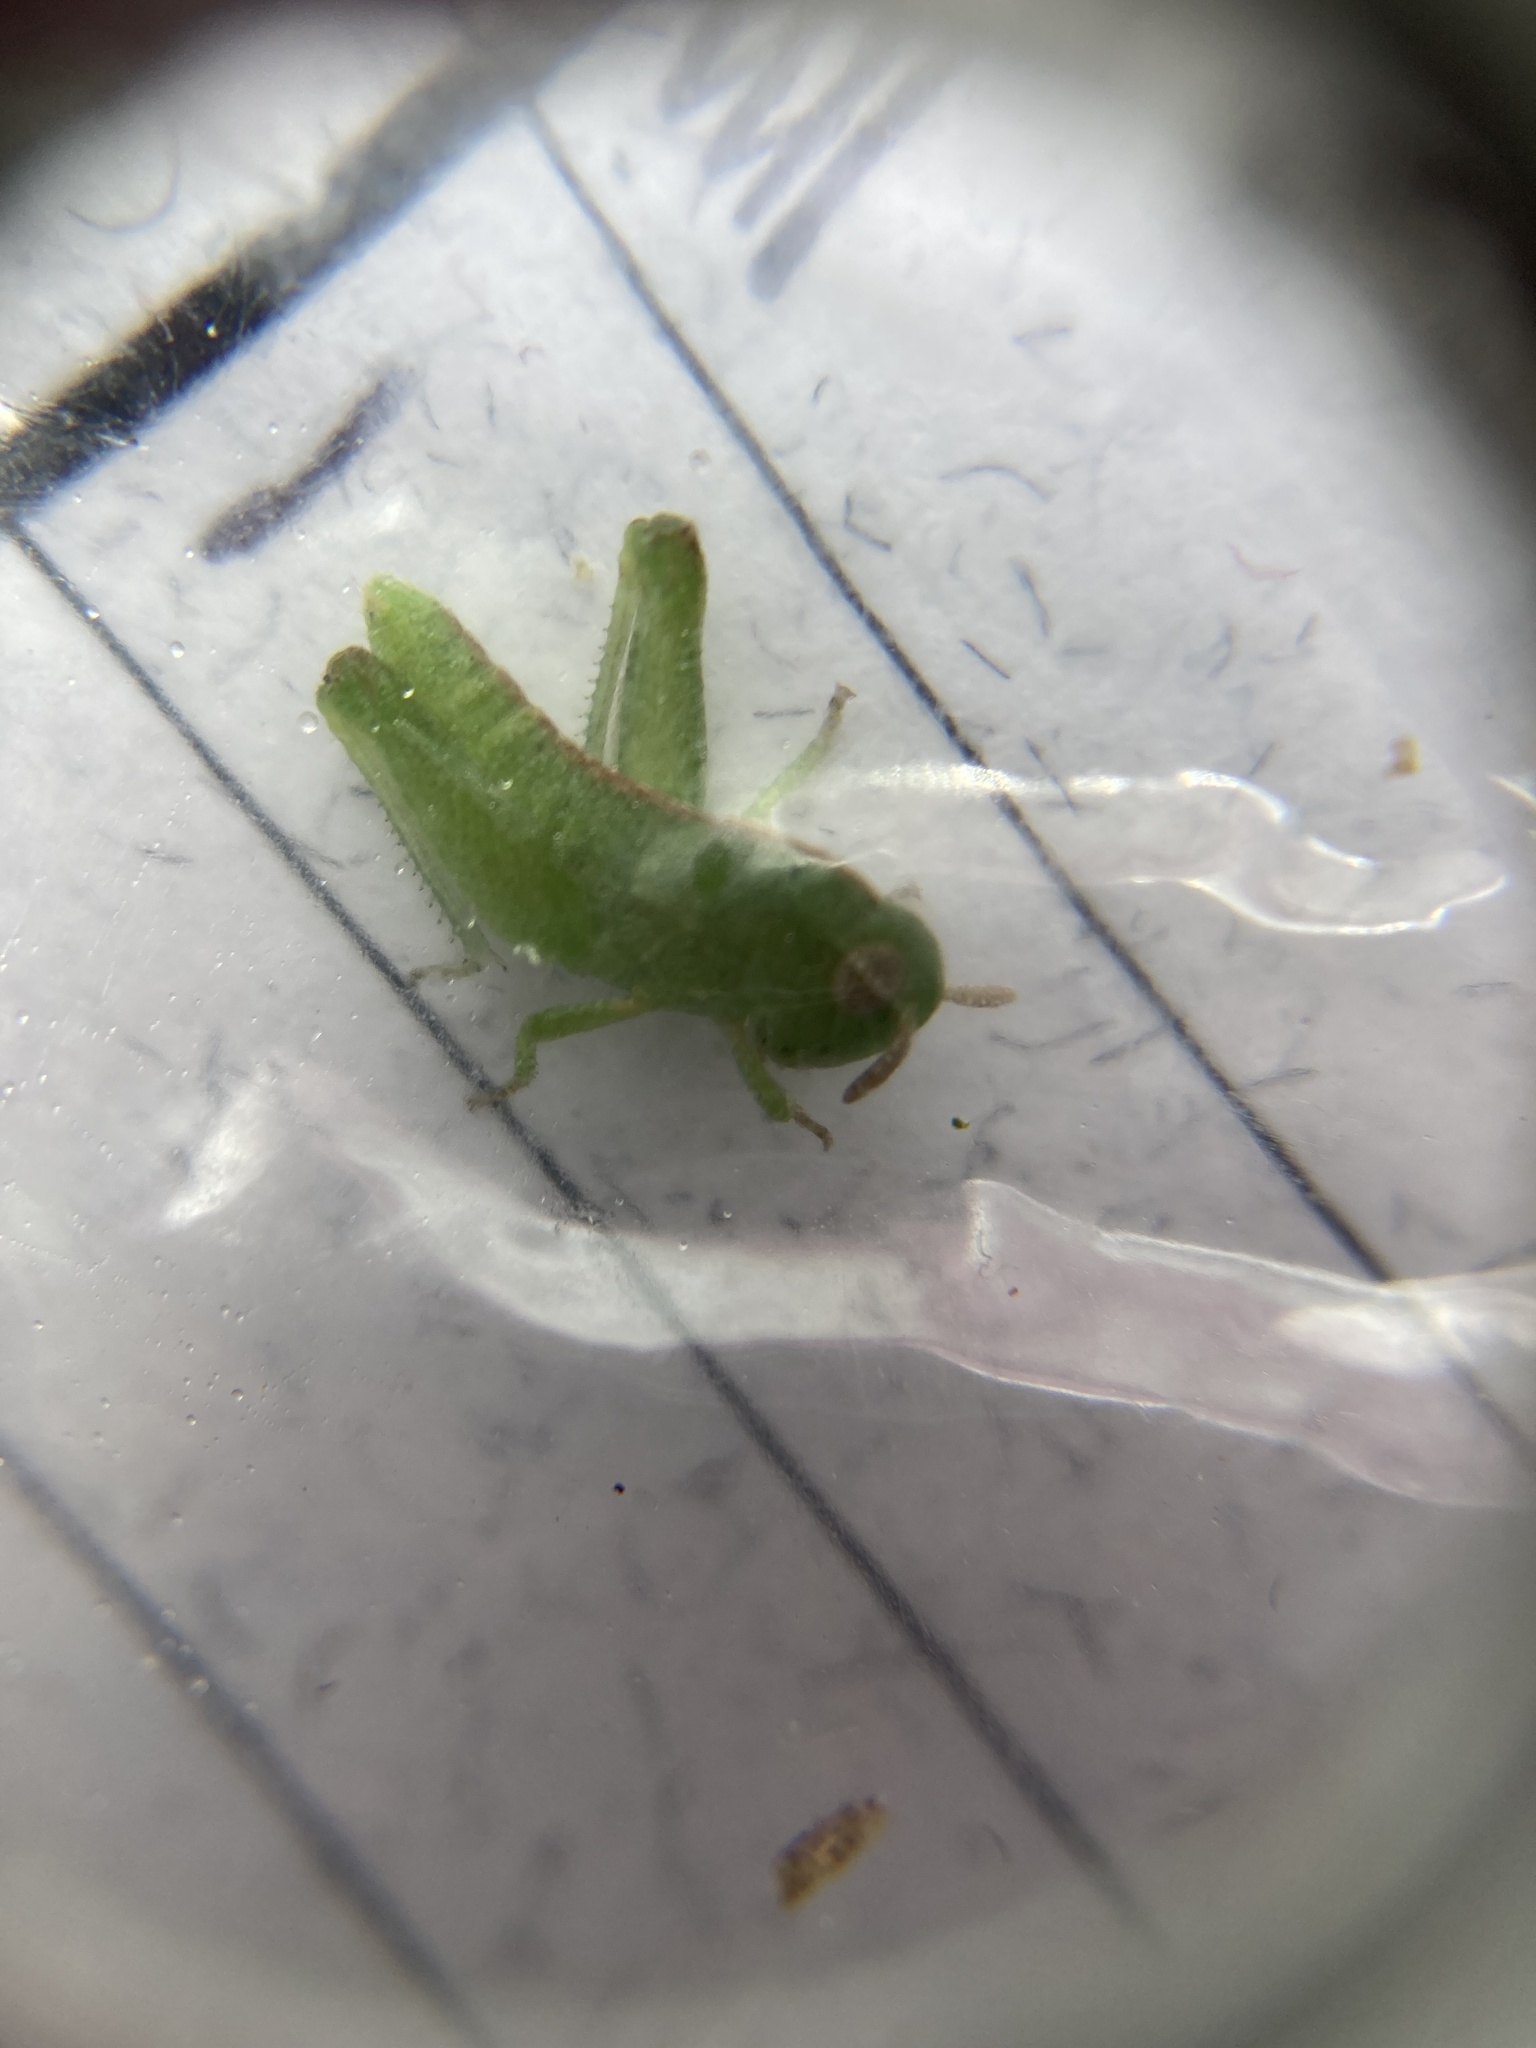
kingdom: Animalia
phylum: Arthropoda
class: Insecta
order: Orthoptera
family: Acrididae
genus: Chortophaga
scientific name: Chortophaga viridifasciata
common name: Green-striped grasshopper
